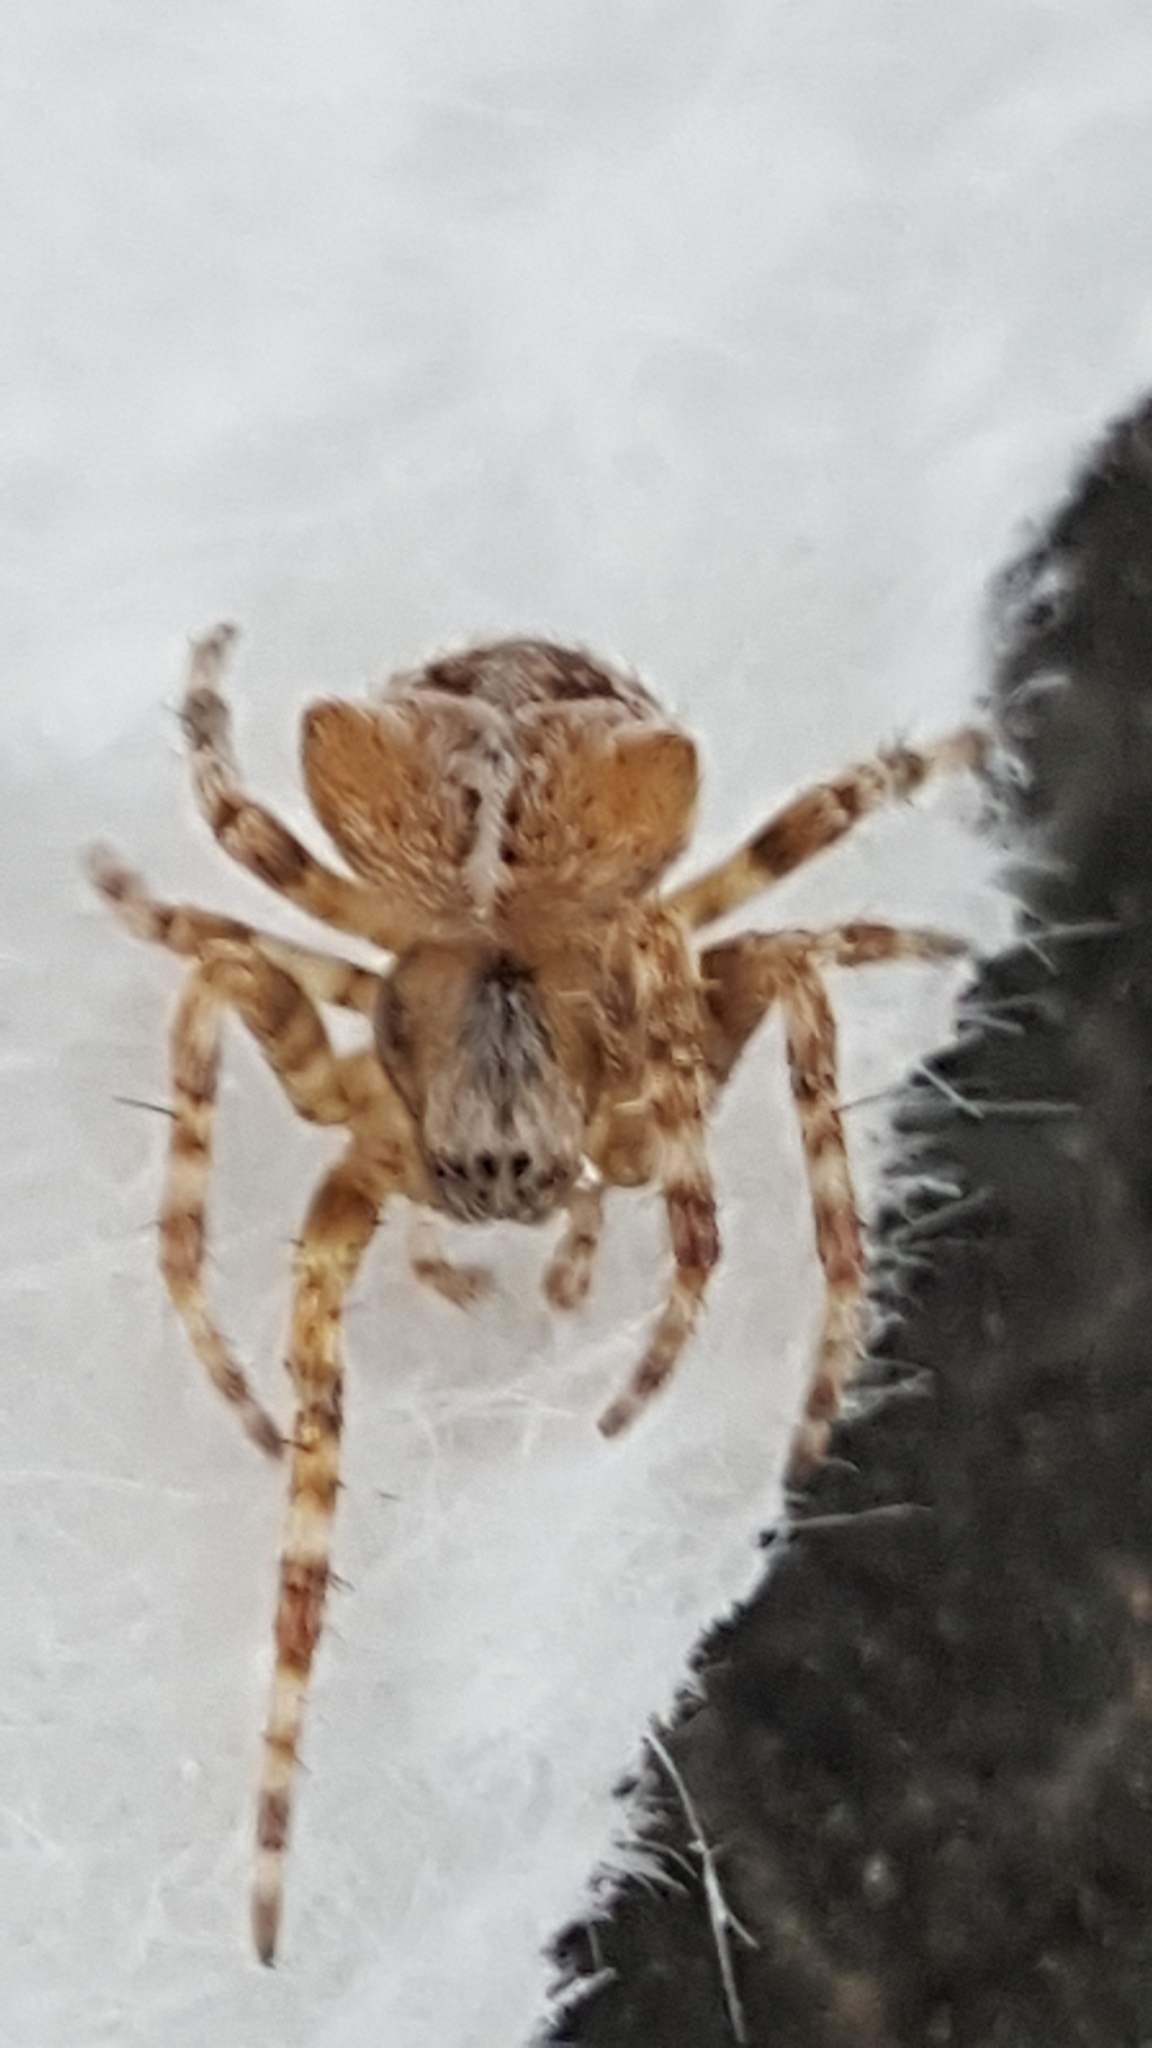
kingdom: Animalia
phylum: Arthropoda
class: Arachnida
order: Araneae
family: Araneidae
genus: Araneus
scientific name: Araneus gemmoides
